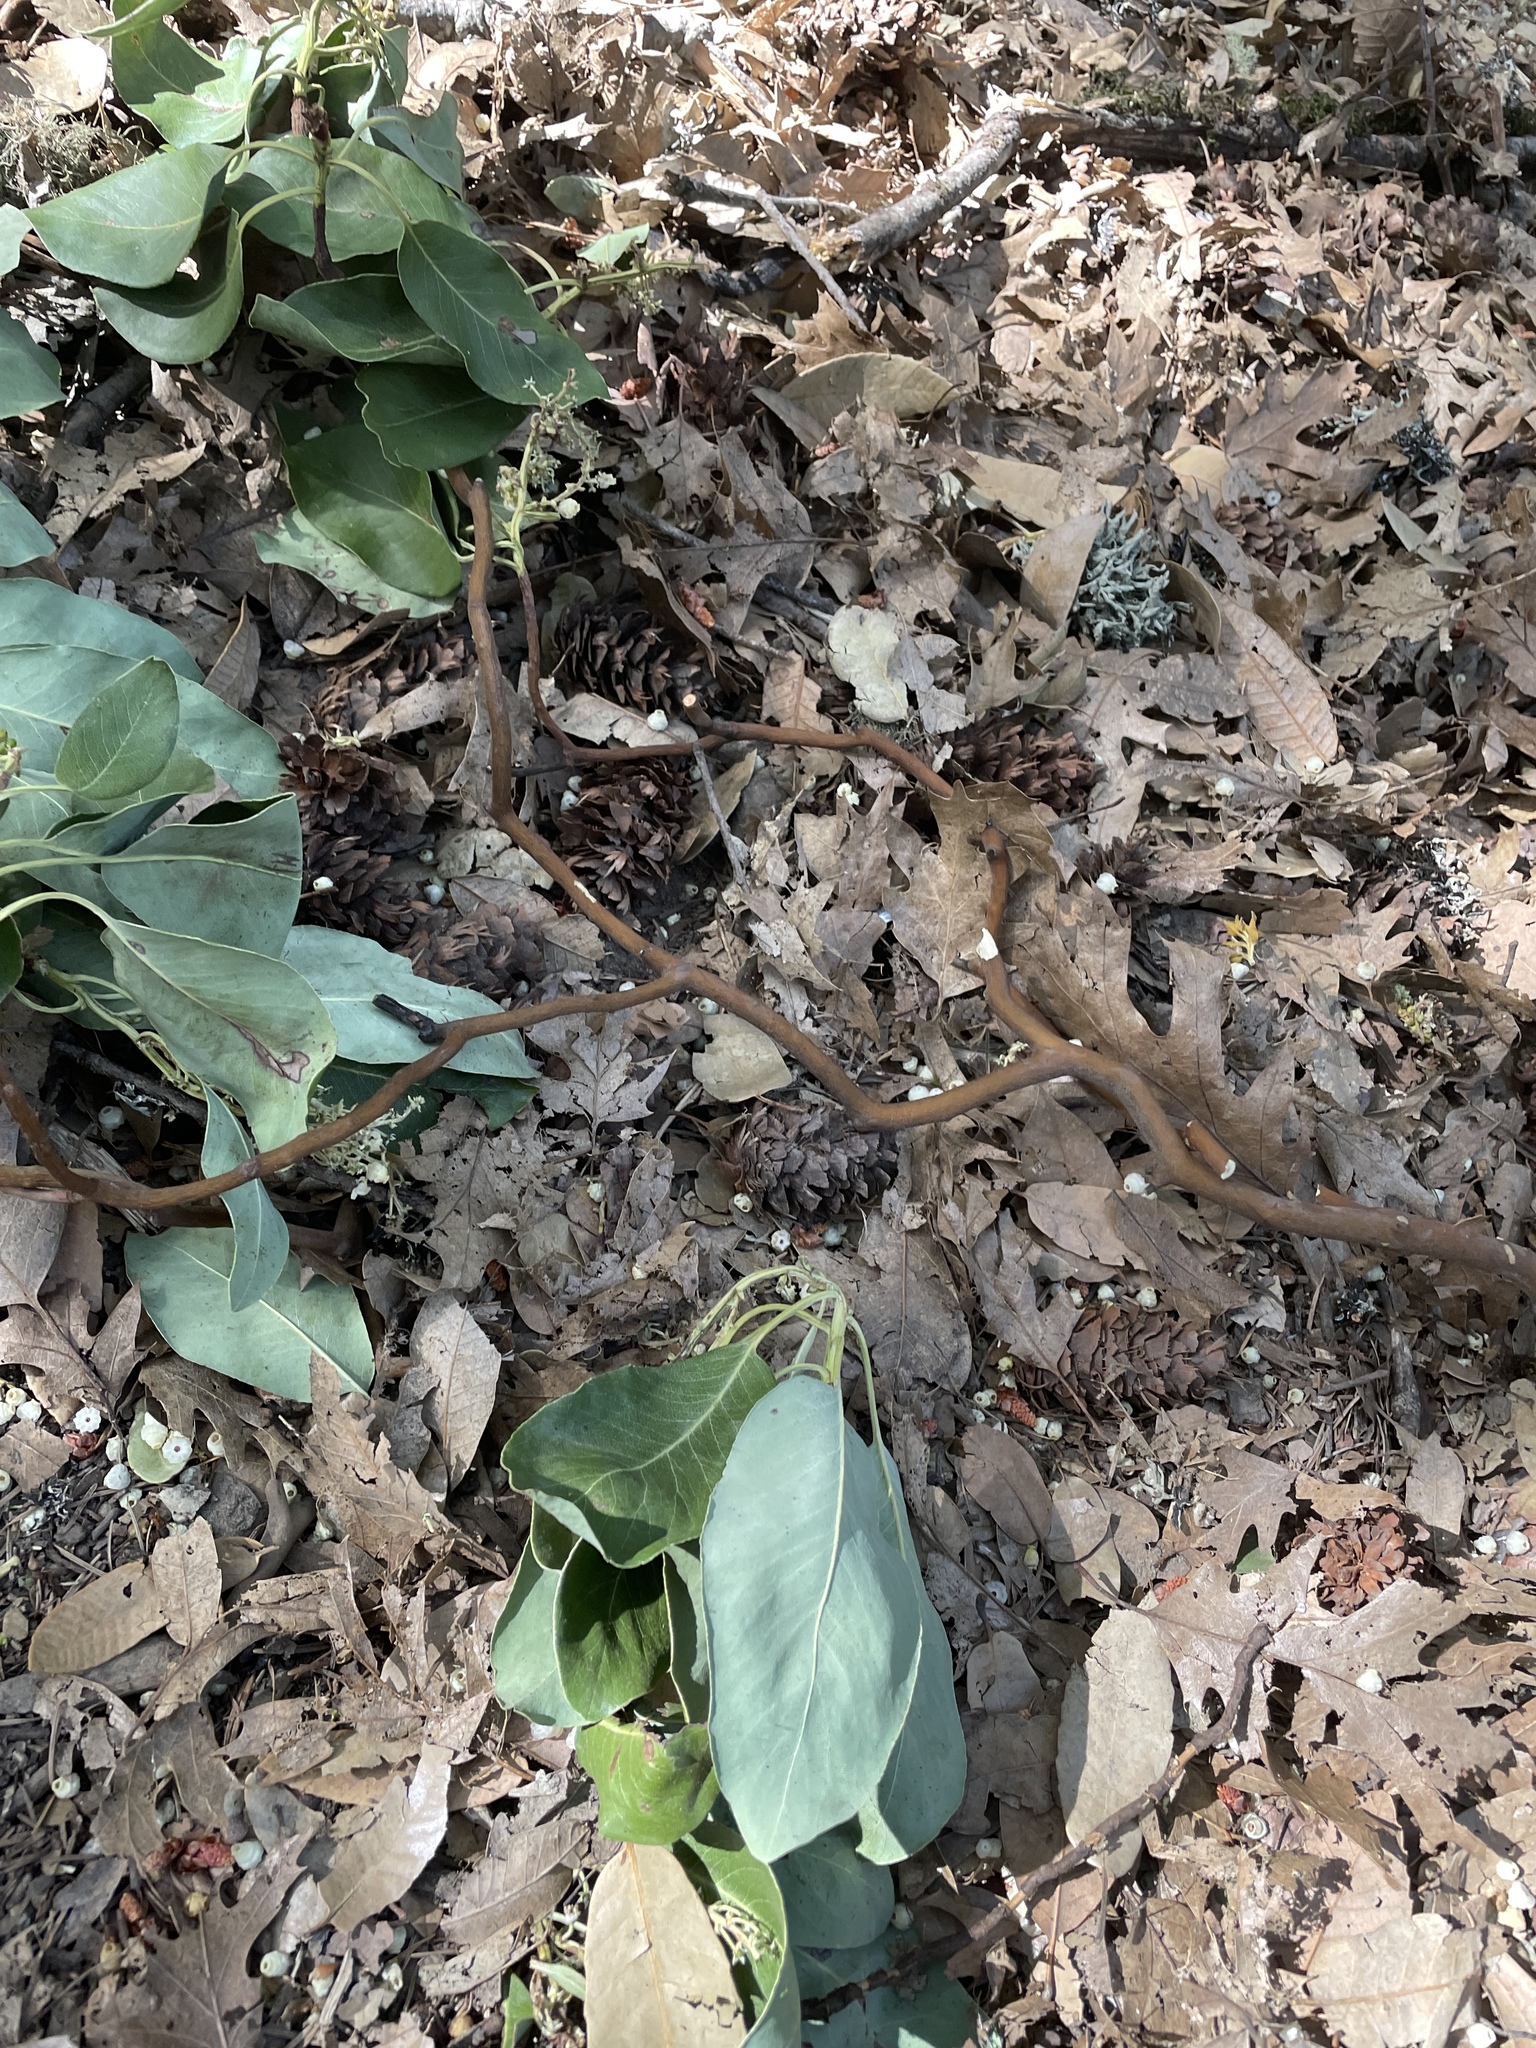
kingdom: Plantae
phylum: Tracheophyta
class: Magnoliopsida
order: Ericales
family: Ericaceae
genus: Arbutus
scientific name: Arbutus menziesii
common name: Pacific madrone
